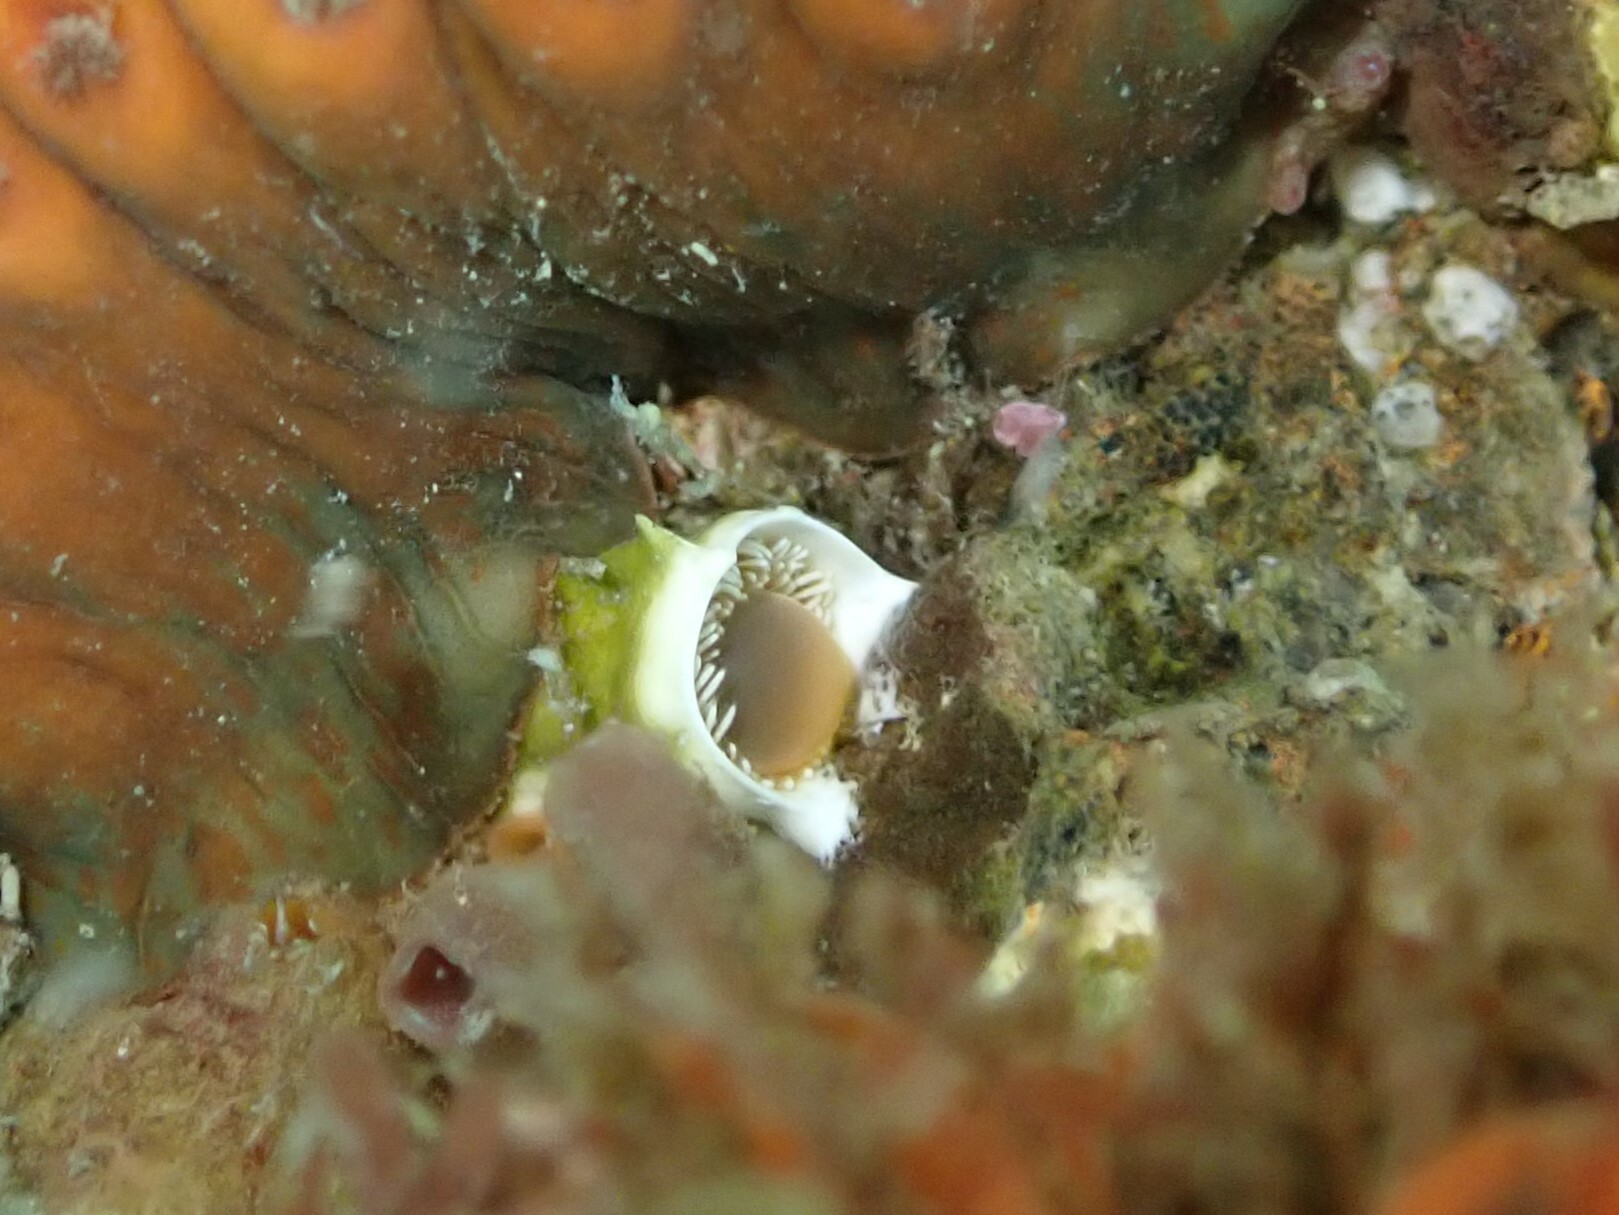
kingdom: Animalia
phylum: Annelida
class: Polychaeta
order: Sabellida
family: Serpulidae
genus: Neovermilia
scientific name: Neovermilia sphaeropomata
